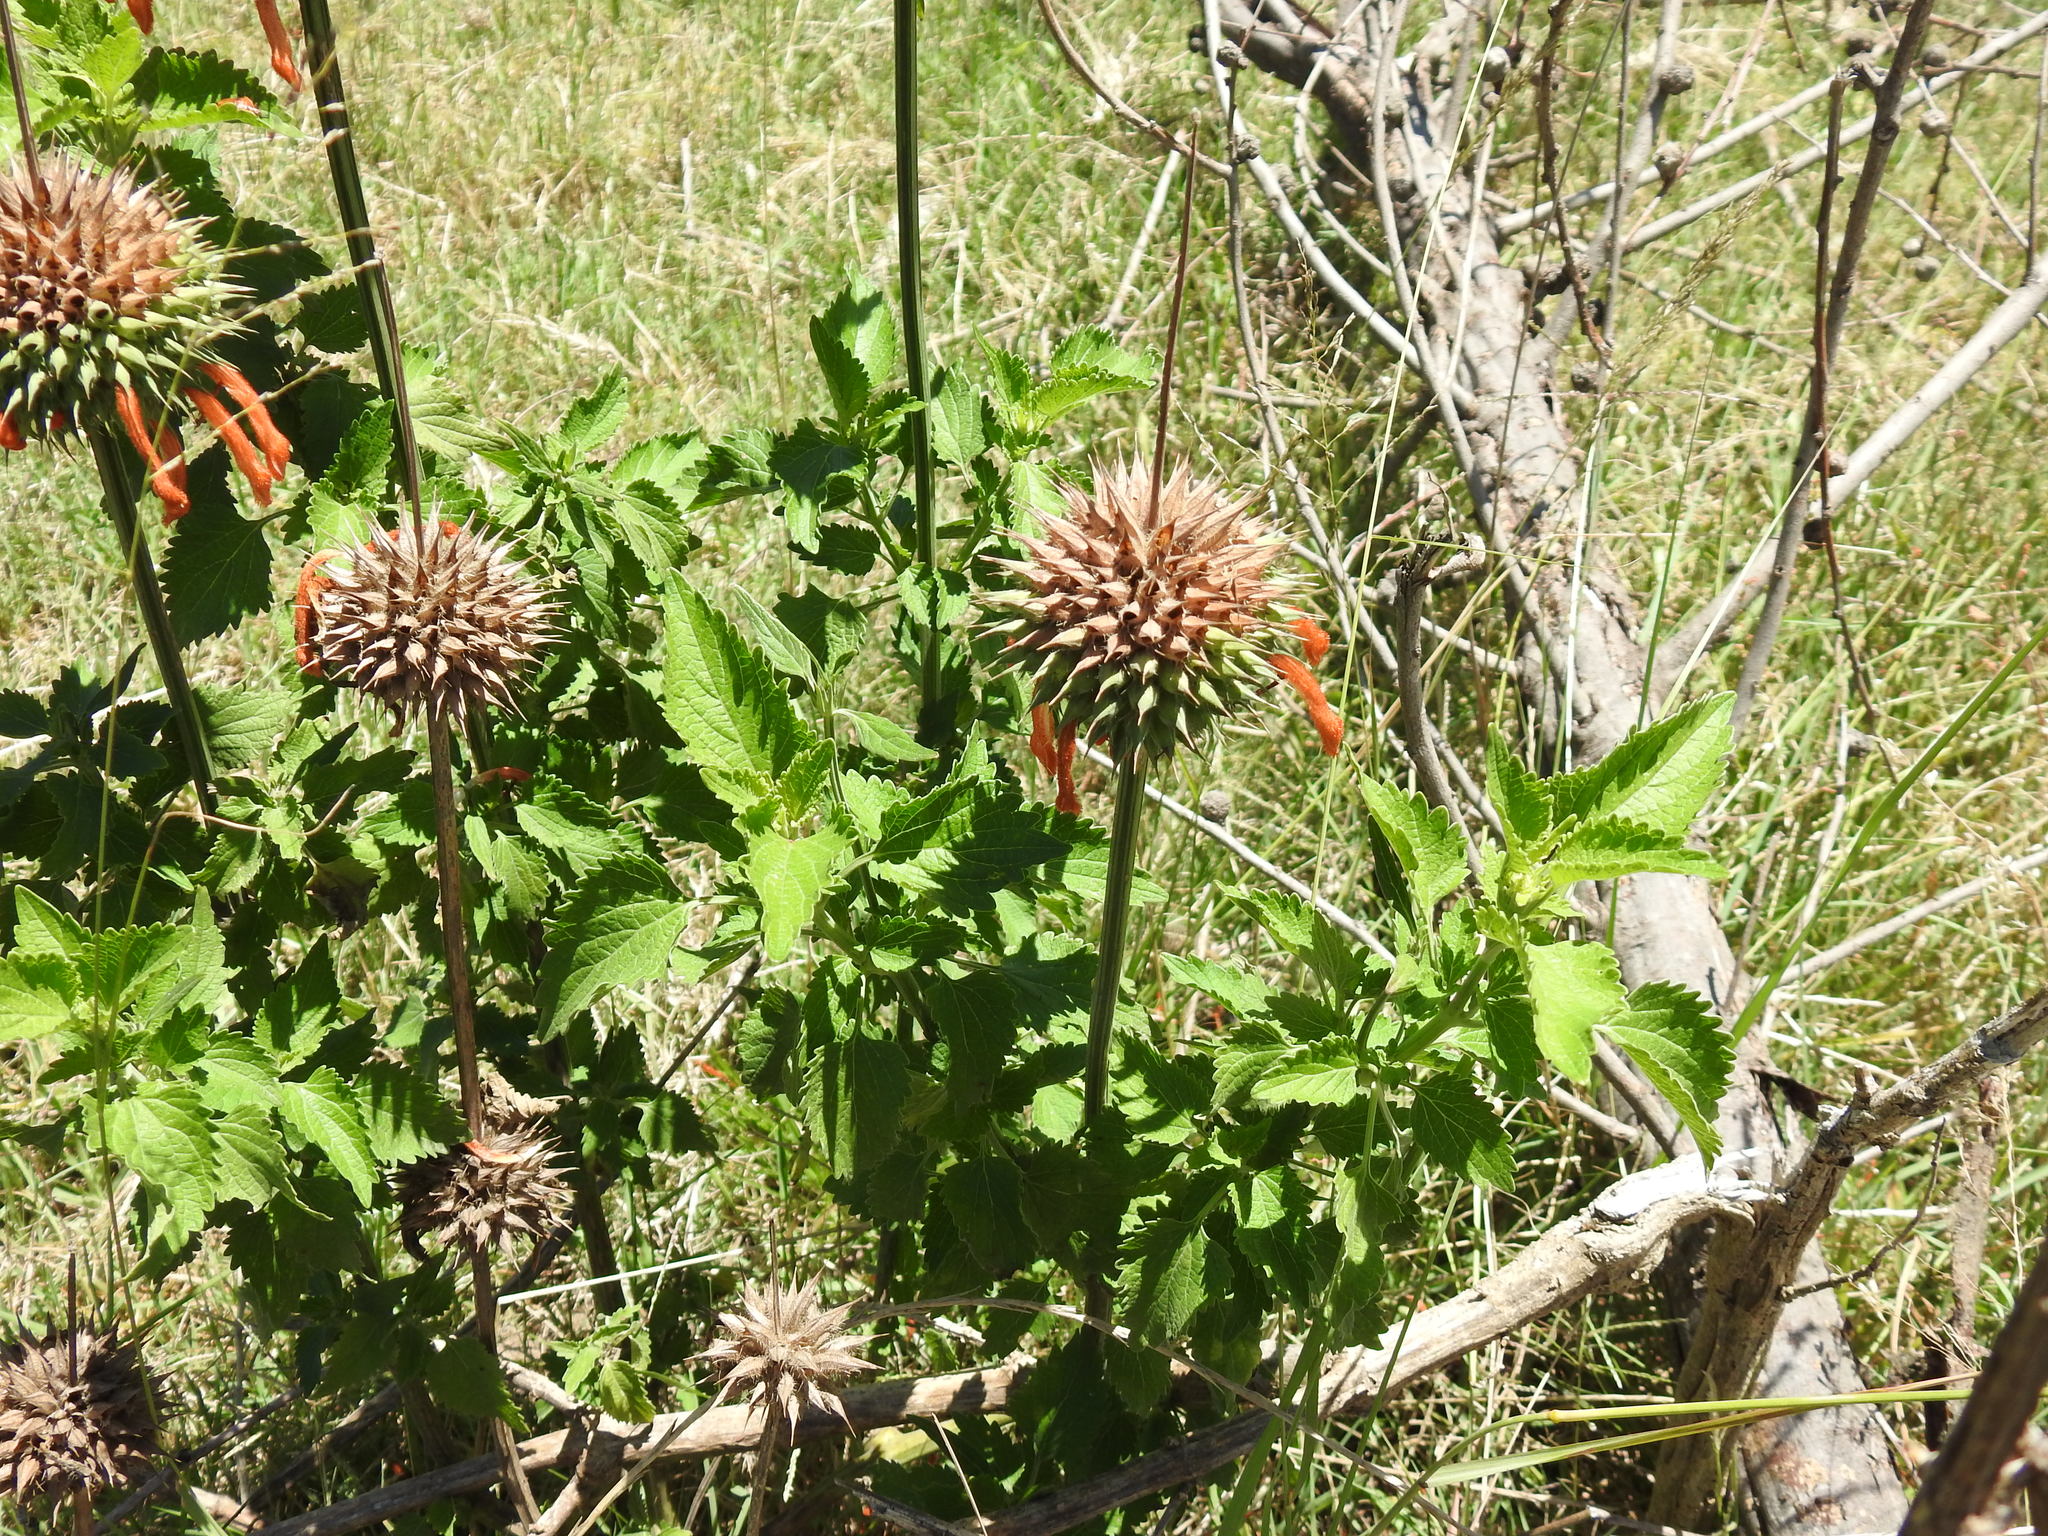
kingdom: Plantae
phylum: Tracheophyta
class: Magnoliopsida
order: Lamiales
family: Lamiaceae
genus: Leonotis
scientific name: Leonotis nepetifolia
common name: Christmas candlestick
